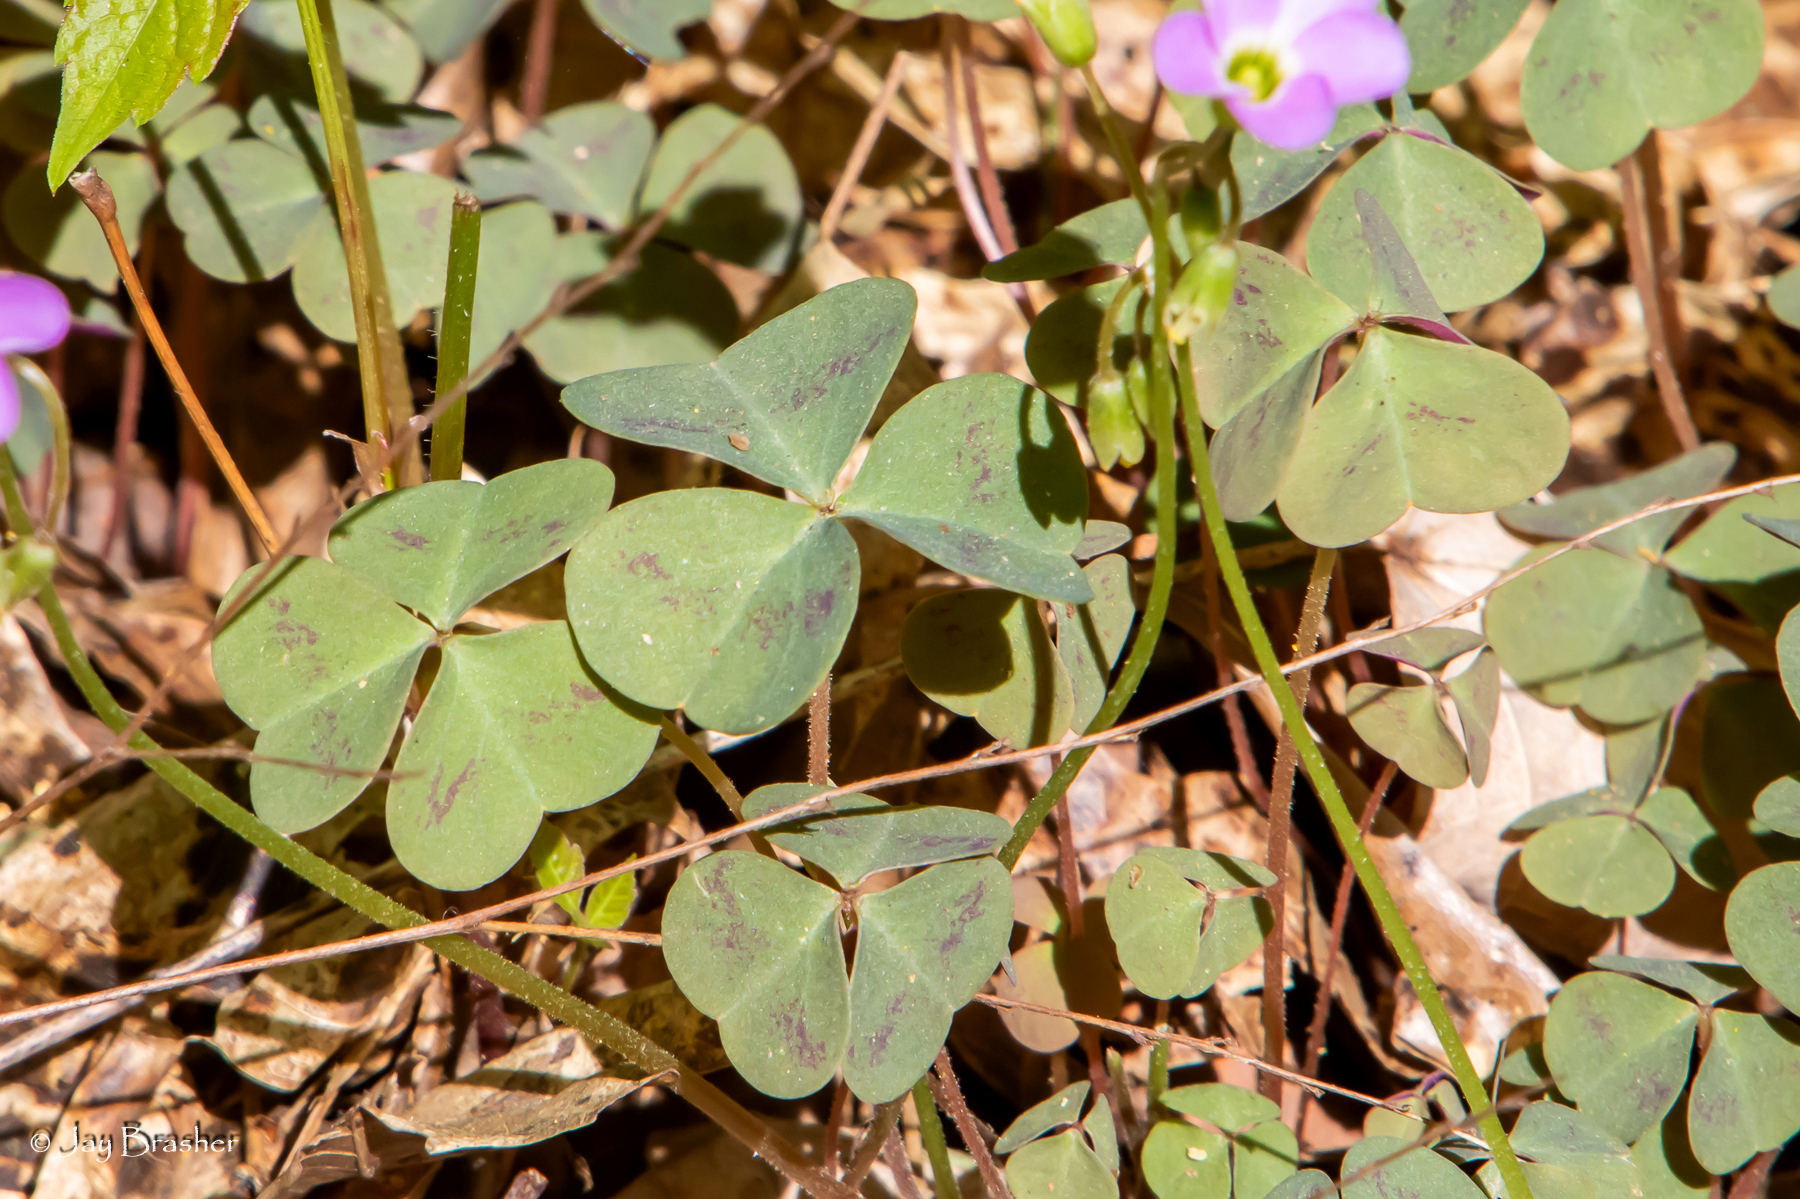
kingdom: Plantae
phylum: Tracheophyta
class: Magnoliopsida
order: Oxalidales
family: Oxalidaceae
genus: Oxalis
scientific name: Oxalis violacea
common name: Violet wood-sorrel
